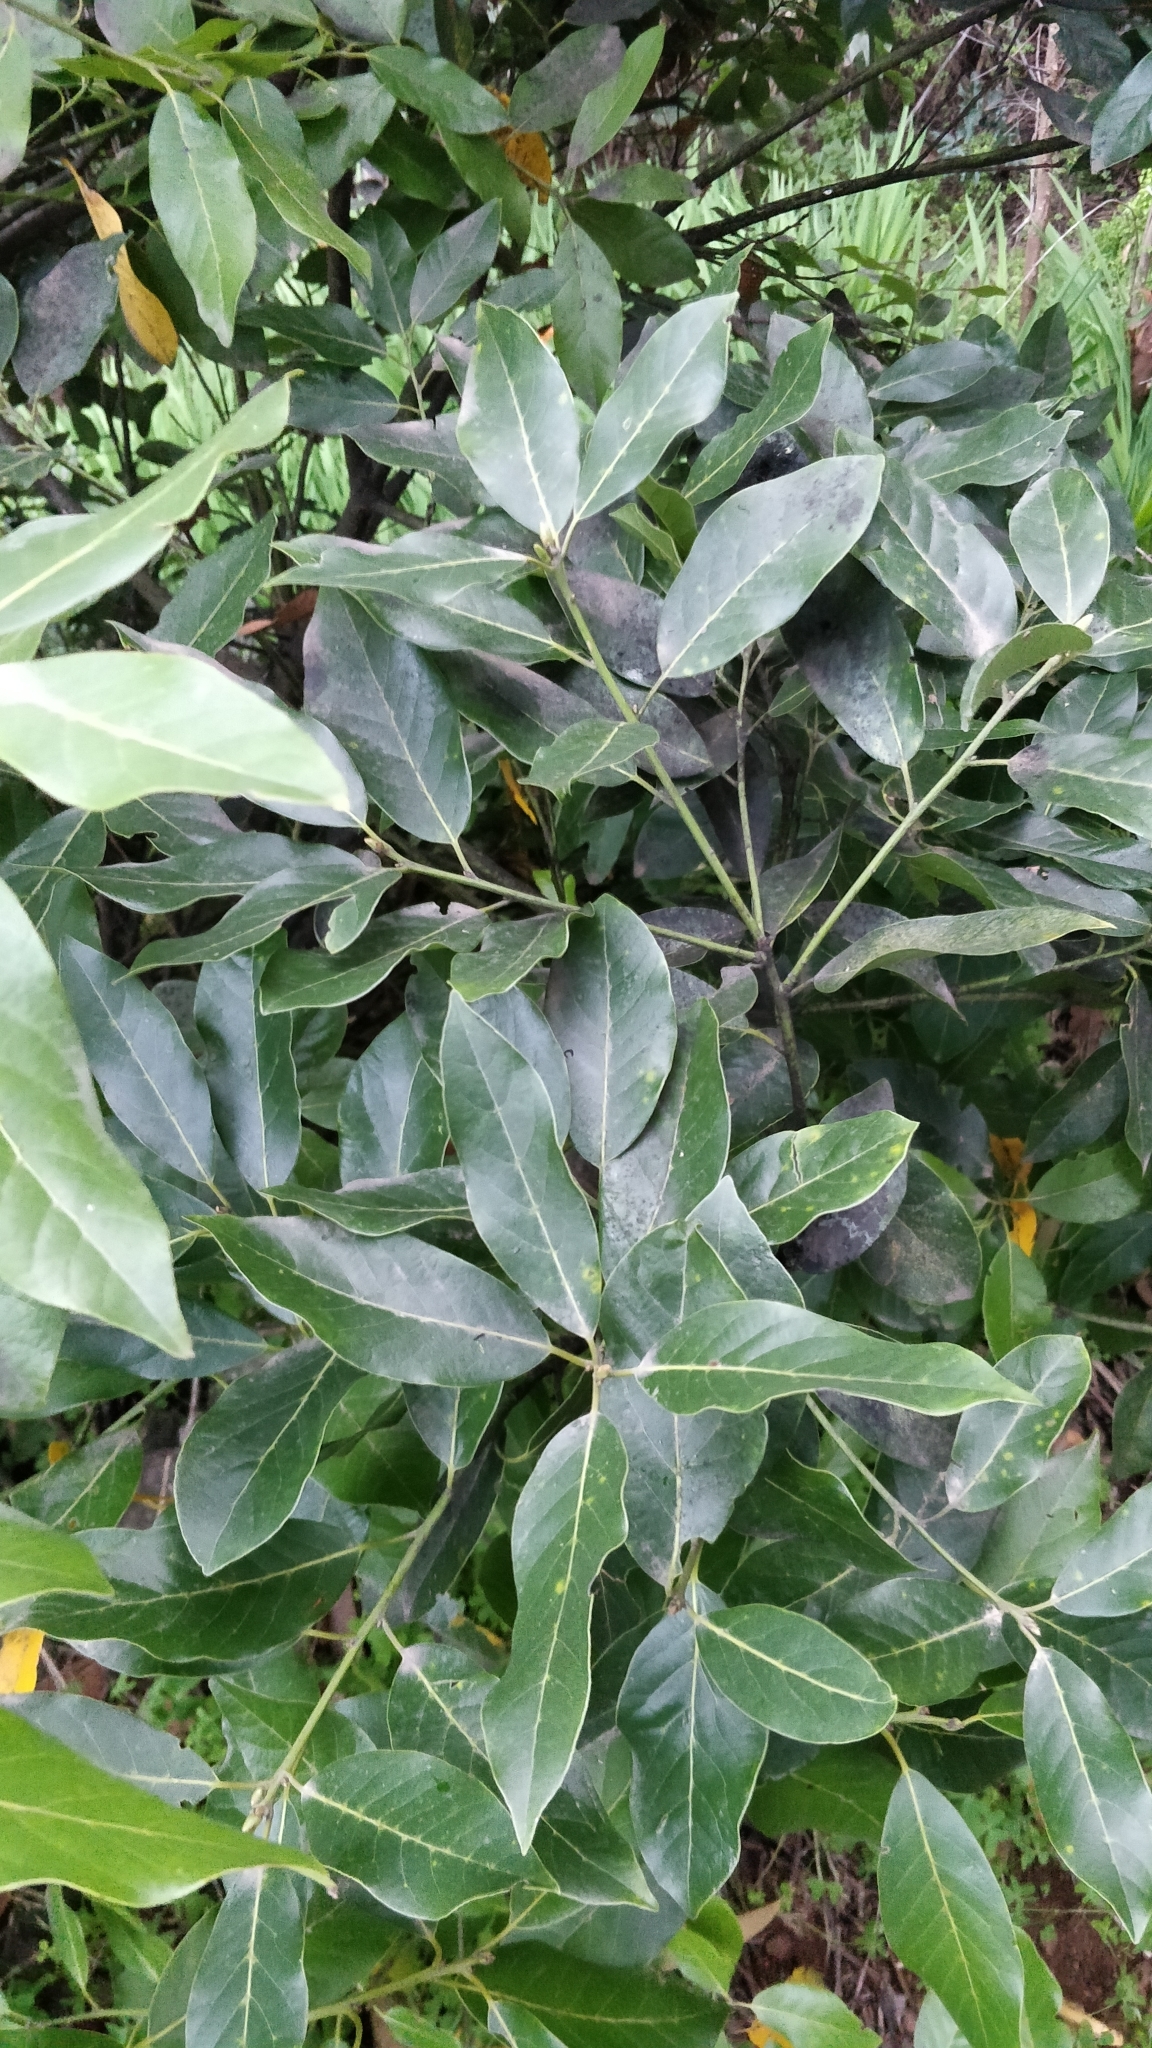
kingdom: Plantae
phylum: Tracheophyta
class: Magnoliopsida
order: Laurales
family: Lauraceae
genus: Laurus
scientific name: Laurus novocanariensis
